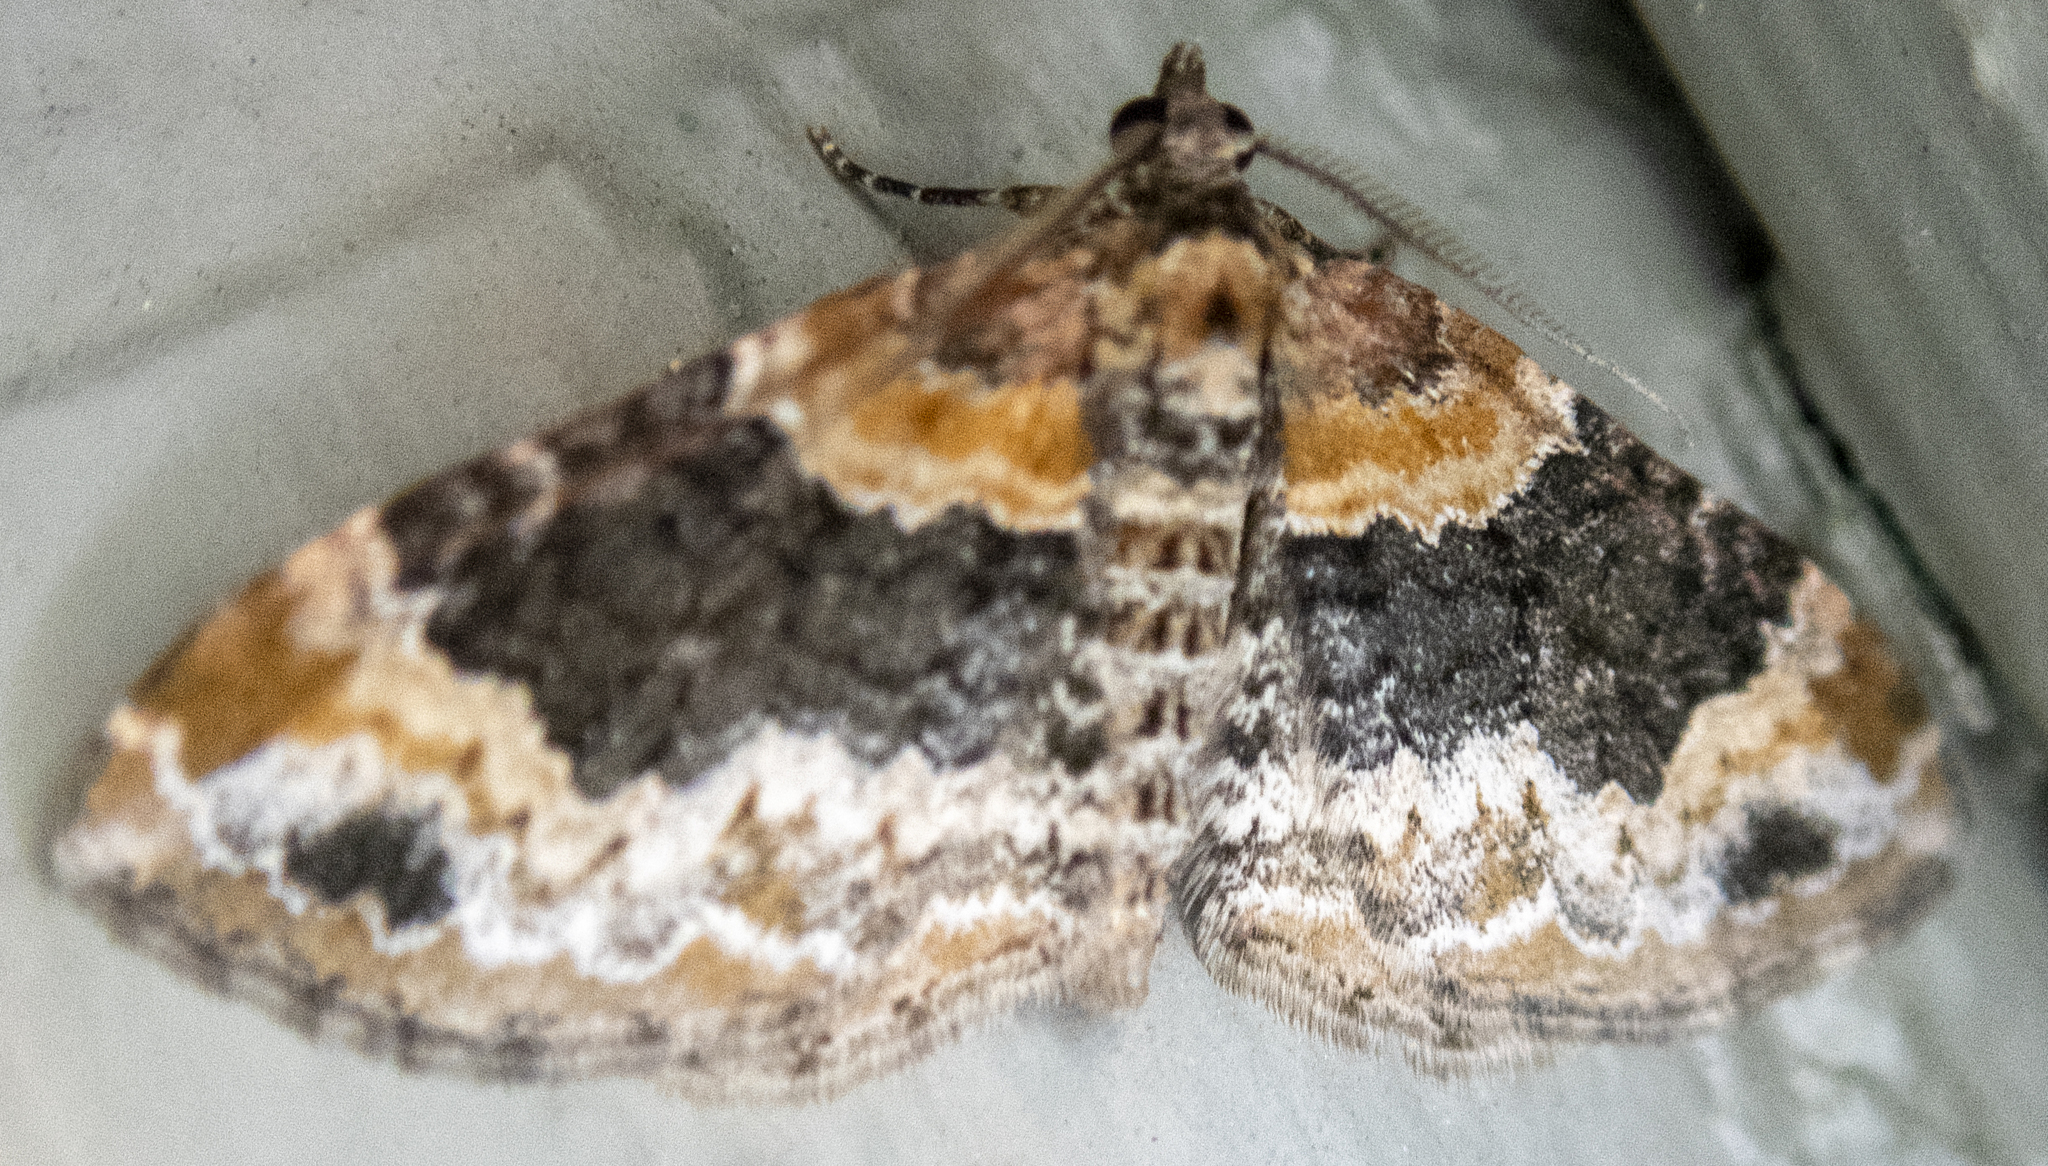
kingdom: Animalia
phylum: Arthropoda
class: Insecta
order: Lepidoptera
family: Geometridae
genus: Xanthorhoe
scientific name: Xanthorhoe ferrugata
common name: Dark-barred twin-spot carpet
